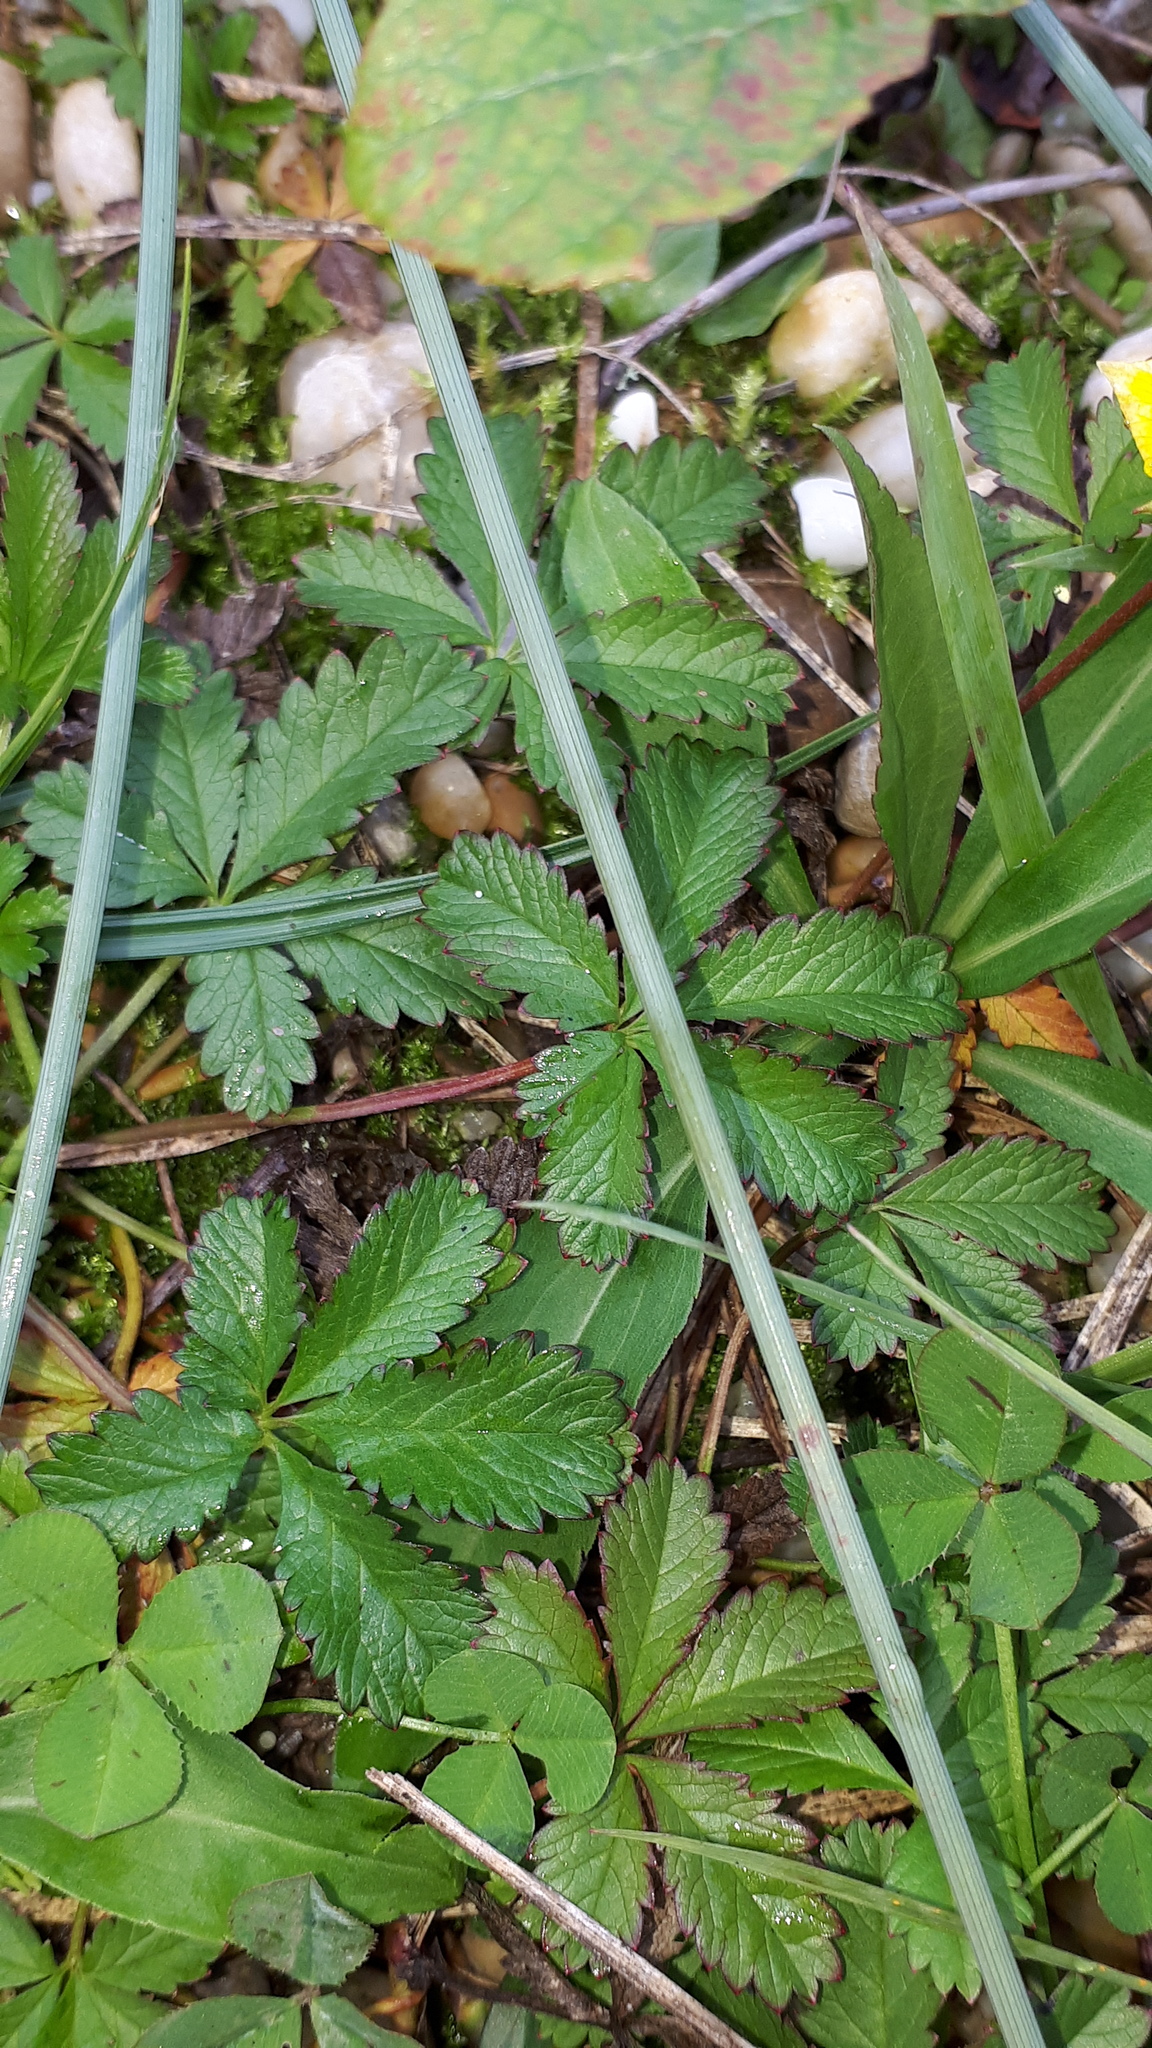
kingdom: Plantae
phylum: Tracheophyta
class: Magnoliopsida
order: Rosales
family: Rosaceae
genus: Potentilla
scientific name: Potentilla reptans
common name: Creeping cinquefoil
